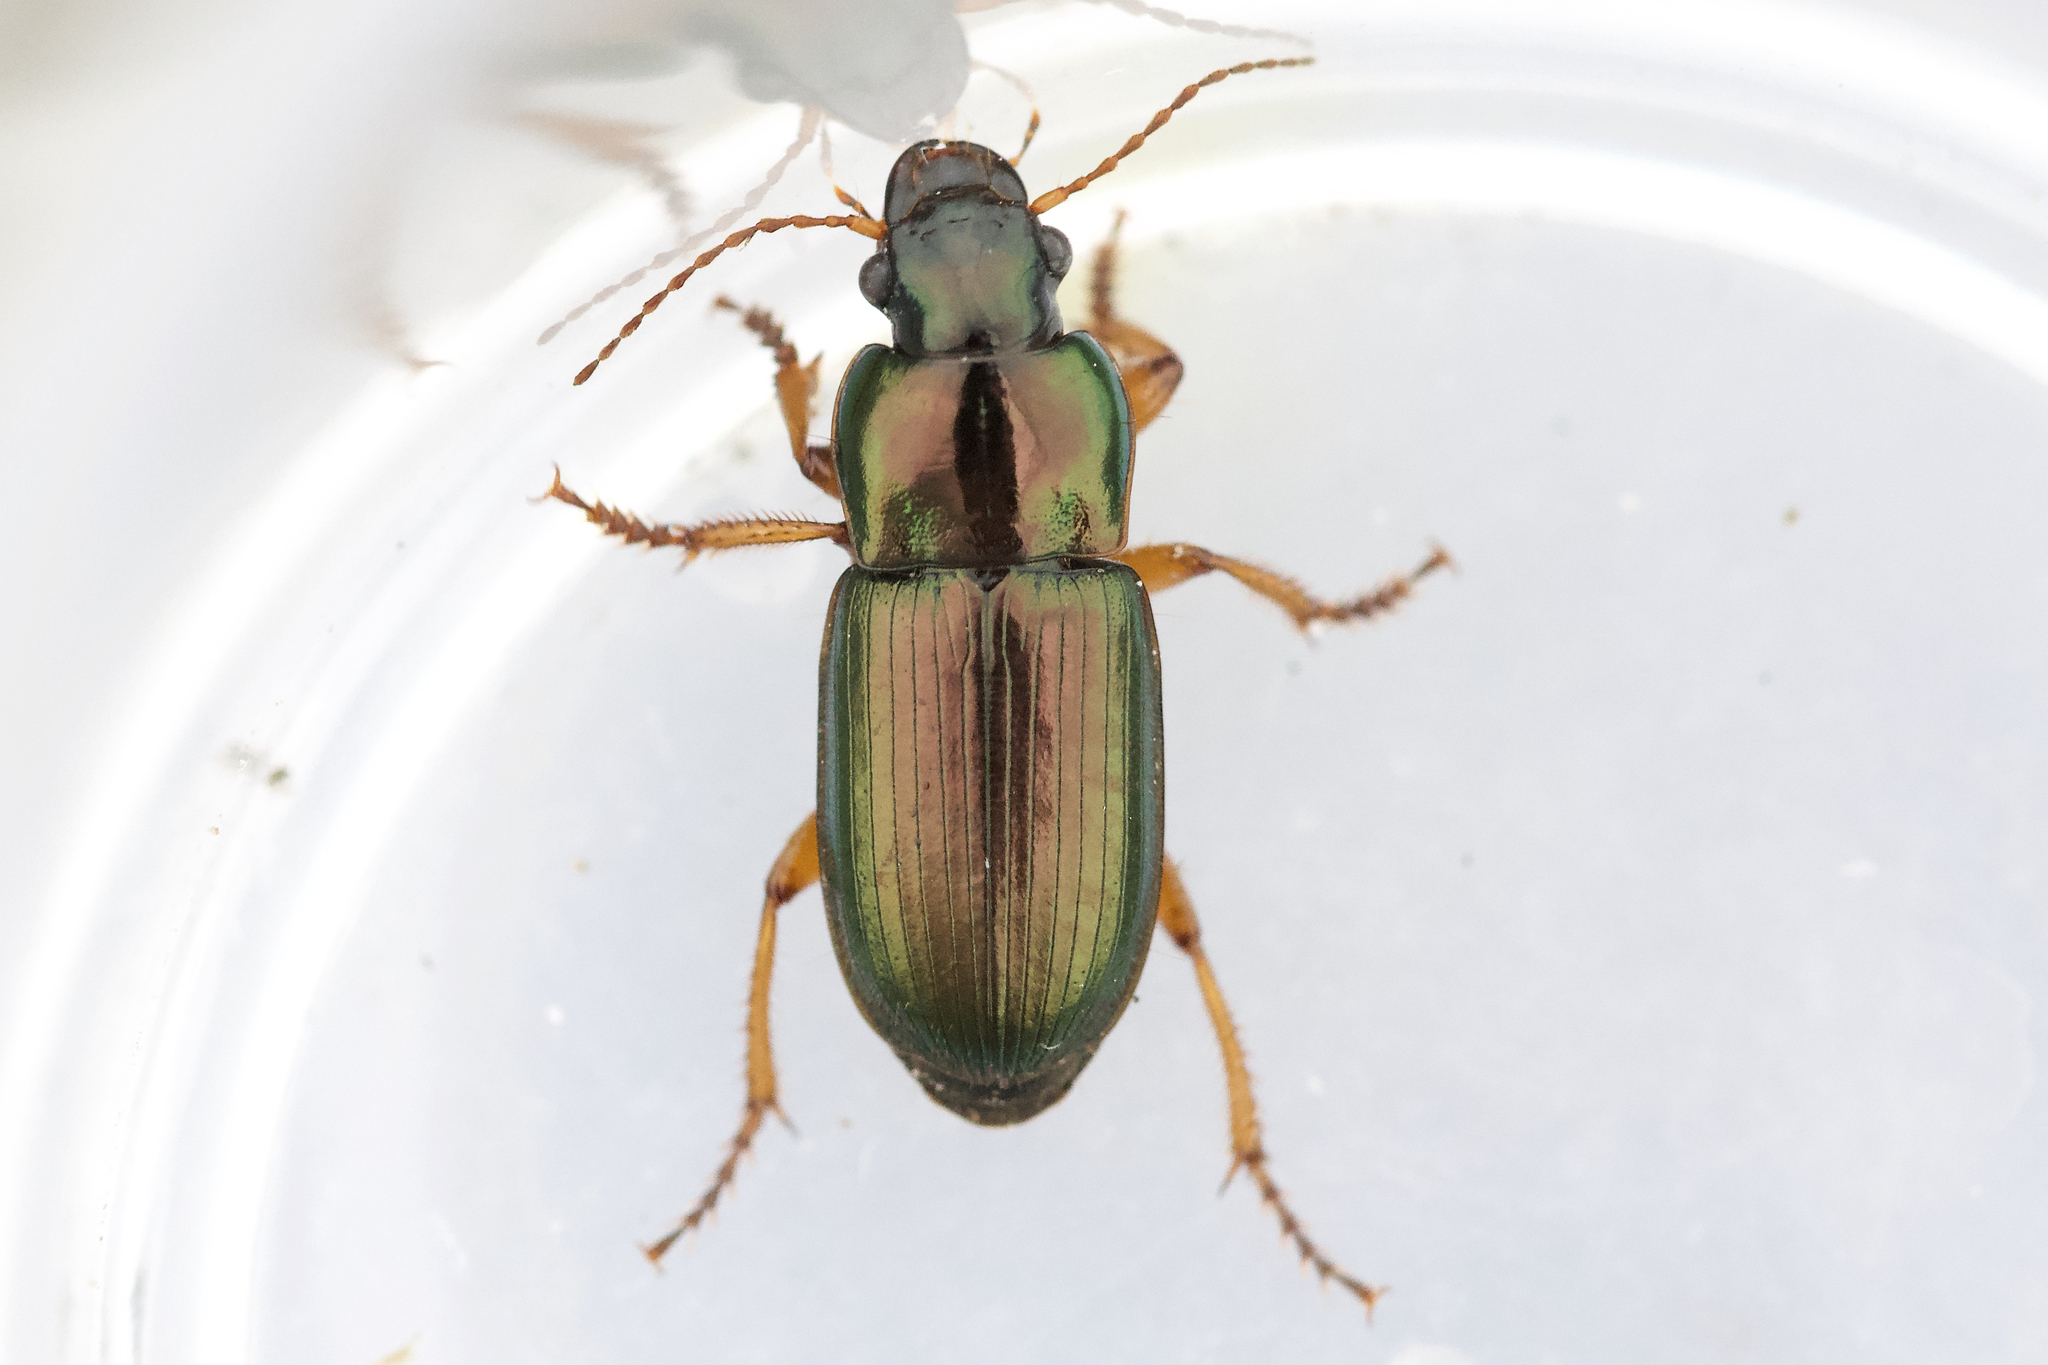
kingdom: Animalia
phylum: Arthropoda
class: Insecta
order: Coleoptera
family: Carabidae
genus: Harpalus
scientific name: Harpalus affinis
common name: Polychrome harp ground beetle
